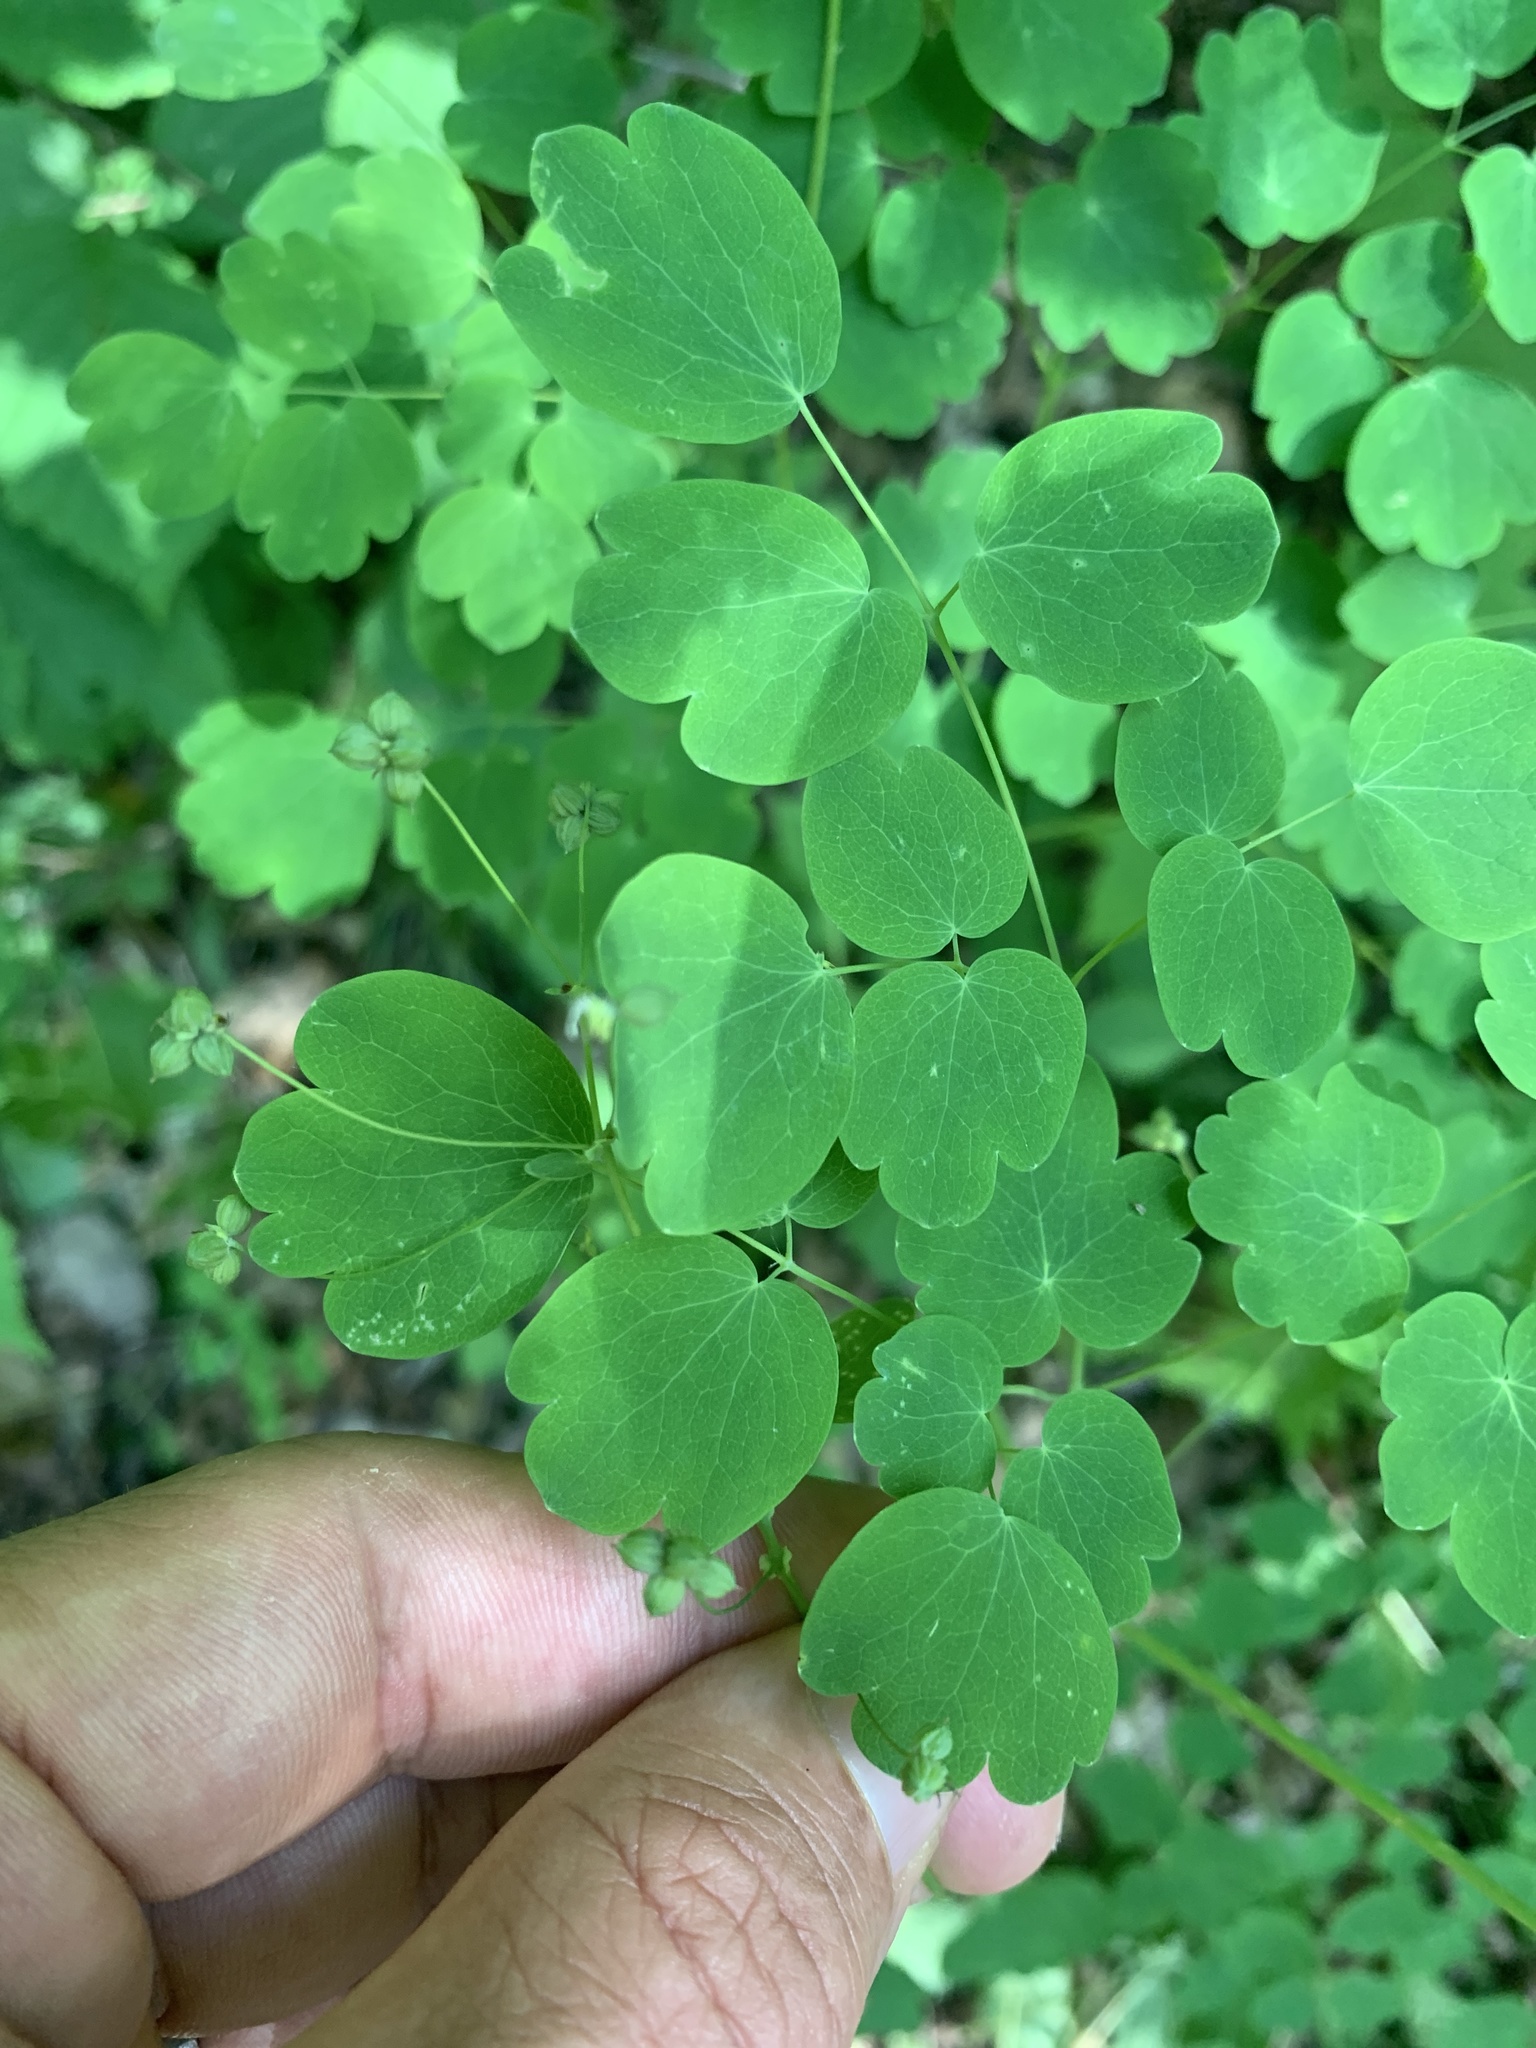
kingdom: Plantae
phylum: Tracheophyta
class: Magnoliopsida
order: Ranunculales
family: Ranunculaceae
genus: Thalictrum
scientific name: Thalictrum dioicum
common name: Early meadow-rue
